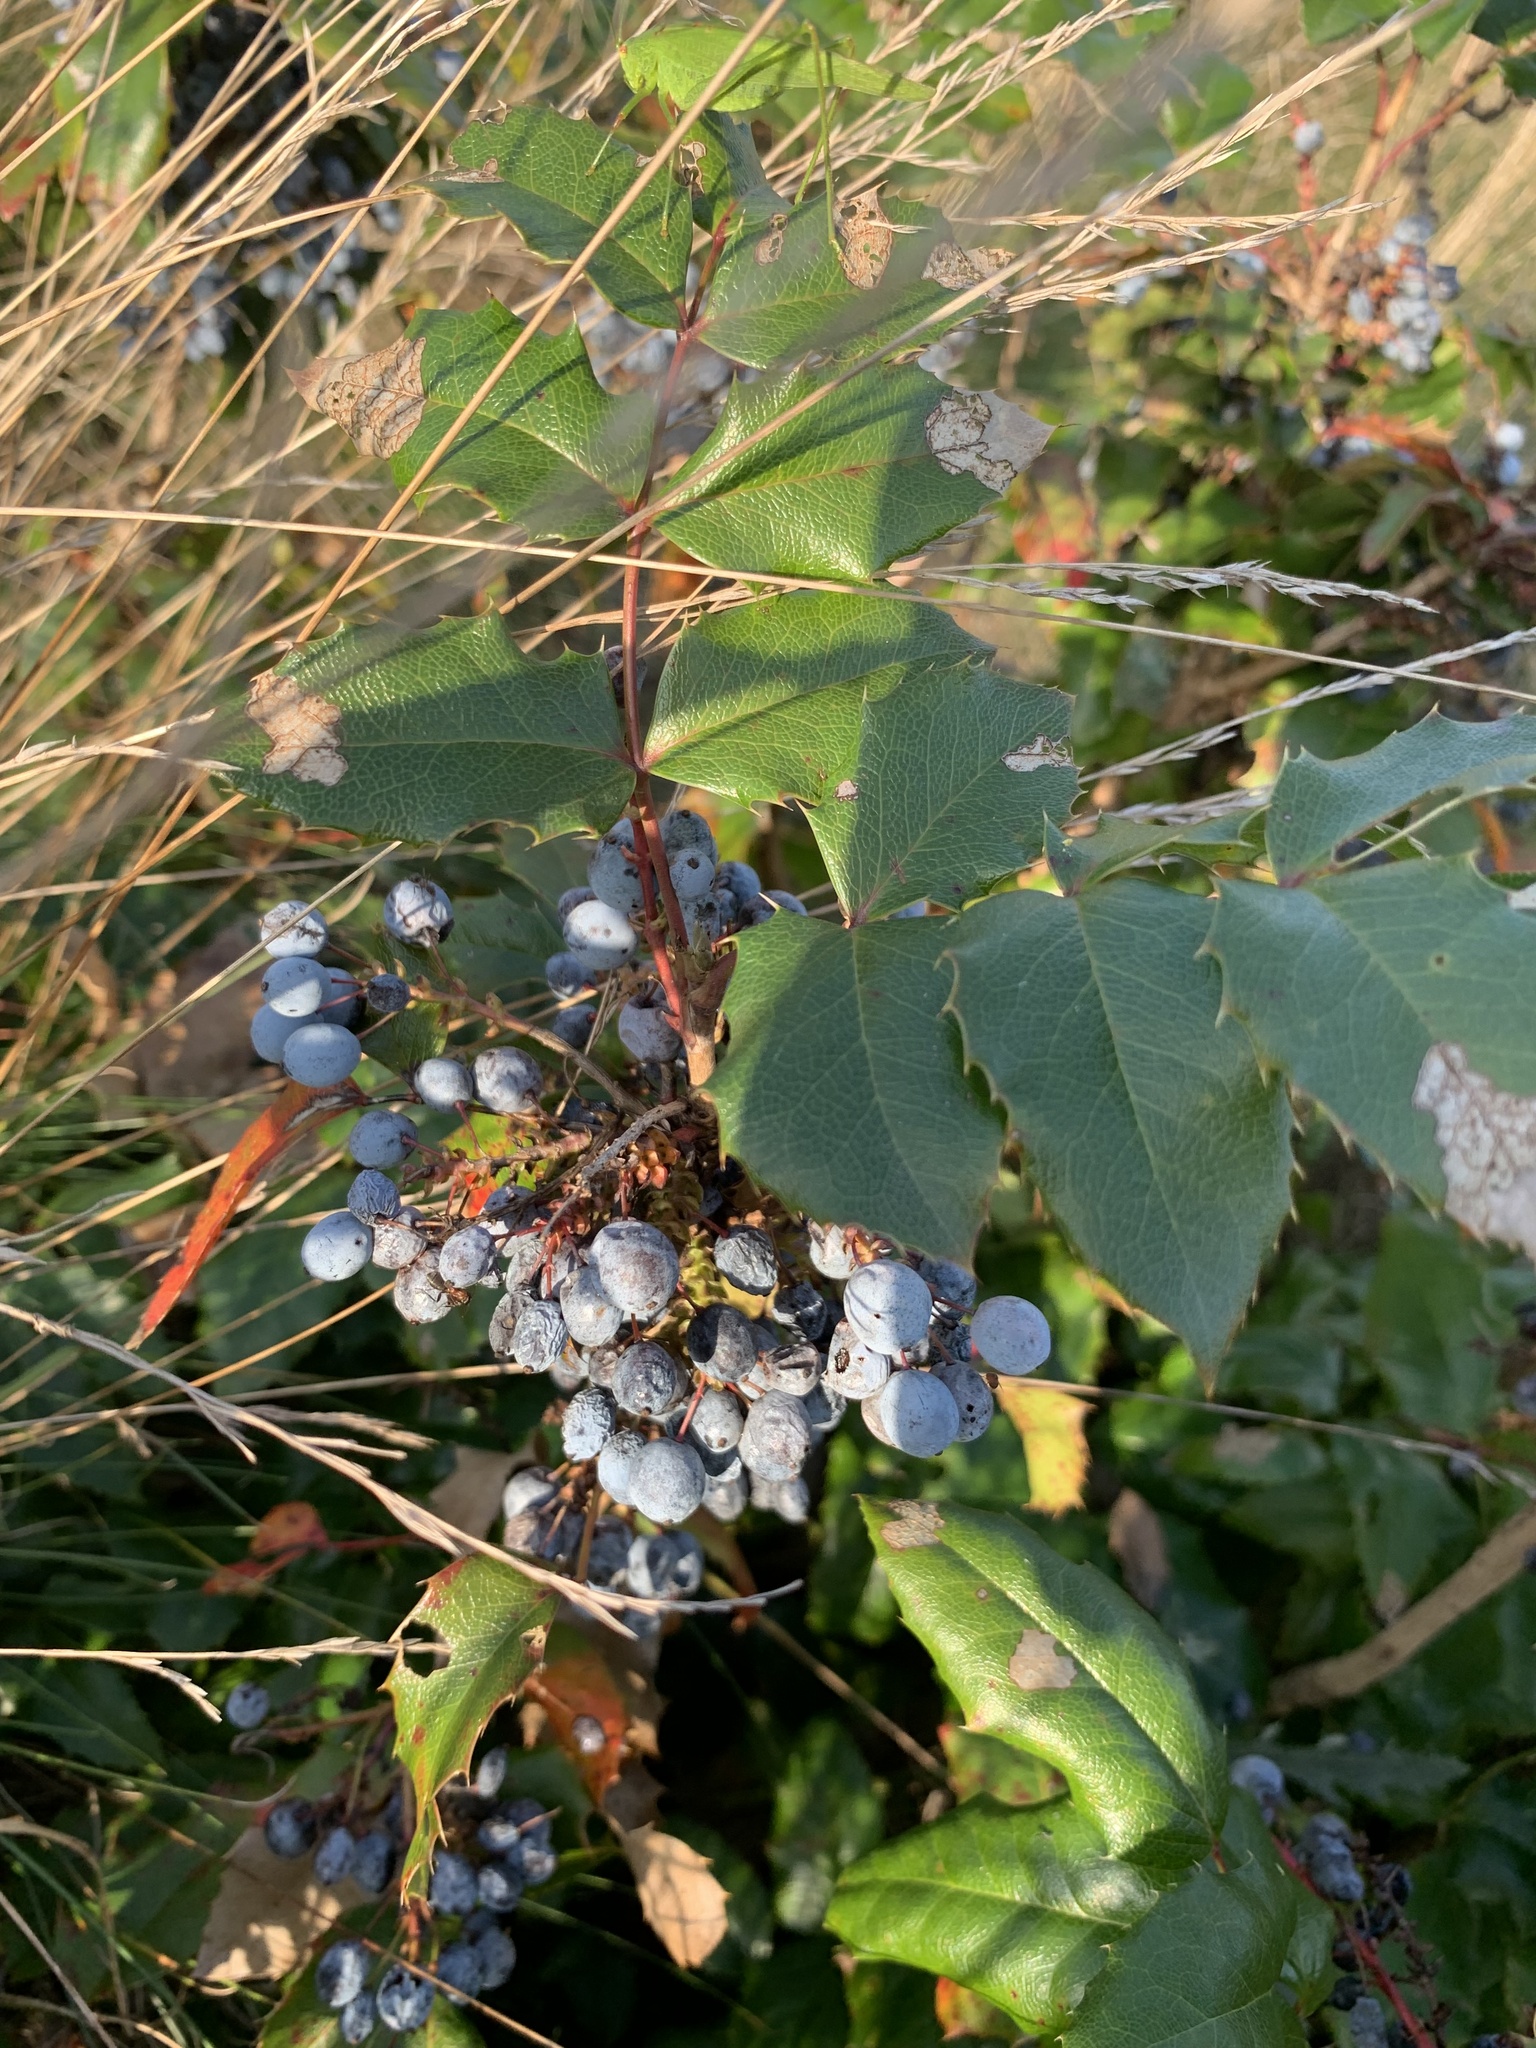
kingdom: Plantae
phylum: Tracheophyta
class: Magnoliopsida
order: Ranunculales
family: Berberidaceae
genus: Mahonia
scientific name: Mahonia aquifolium
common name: Oregon-grape
